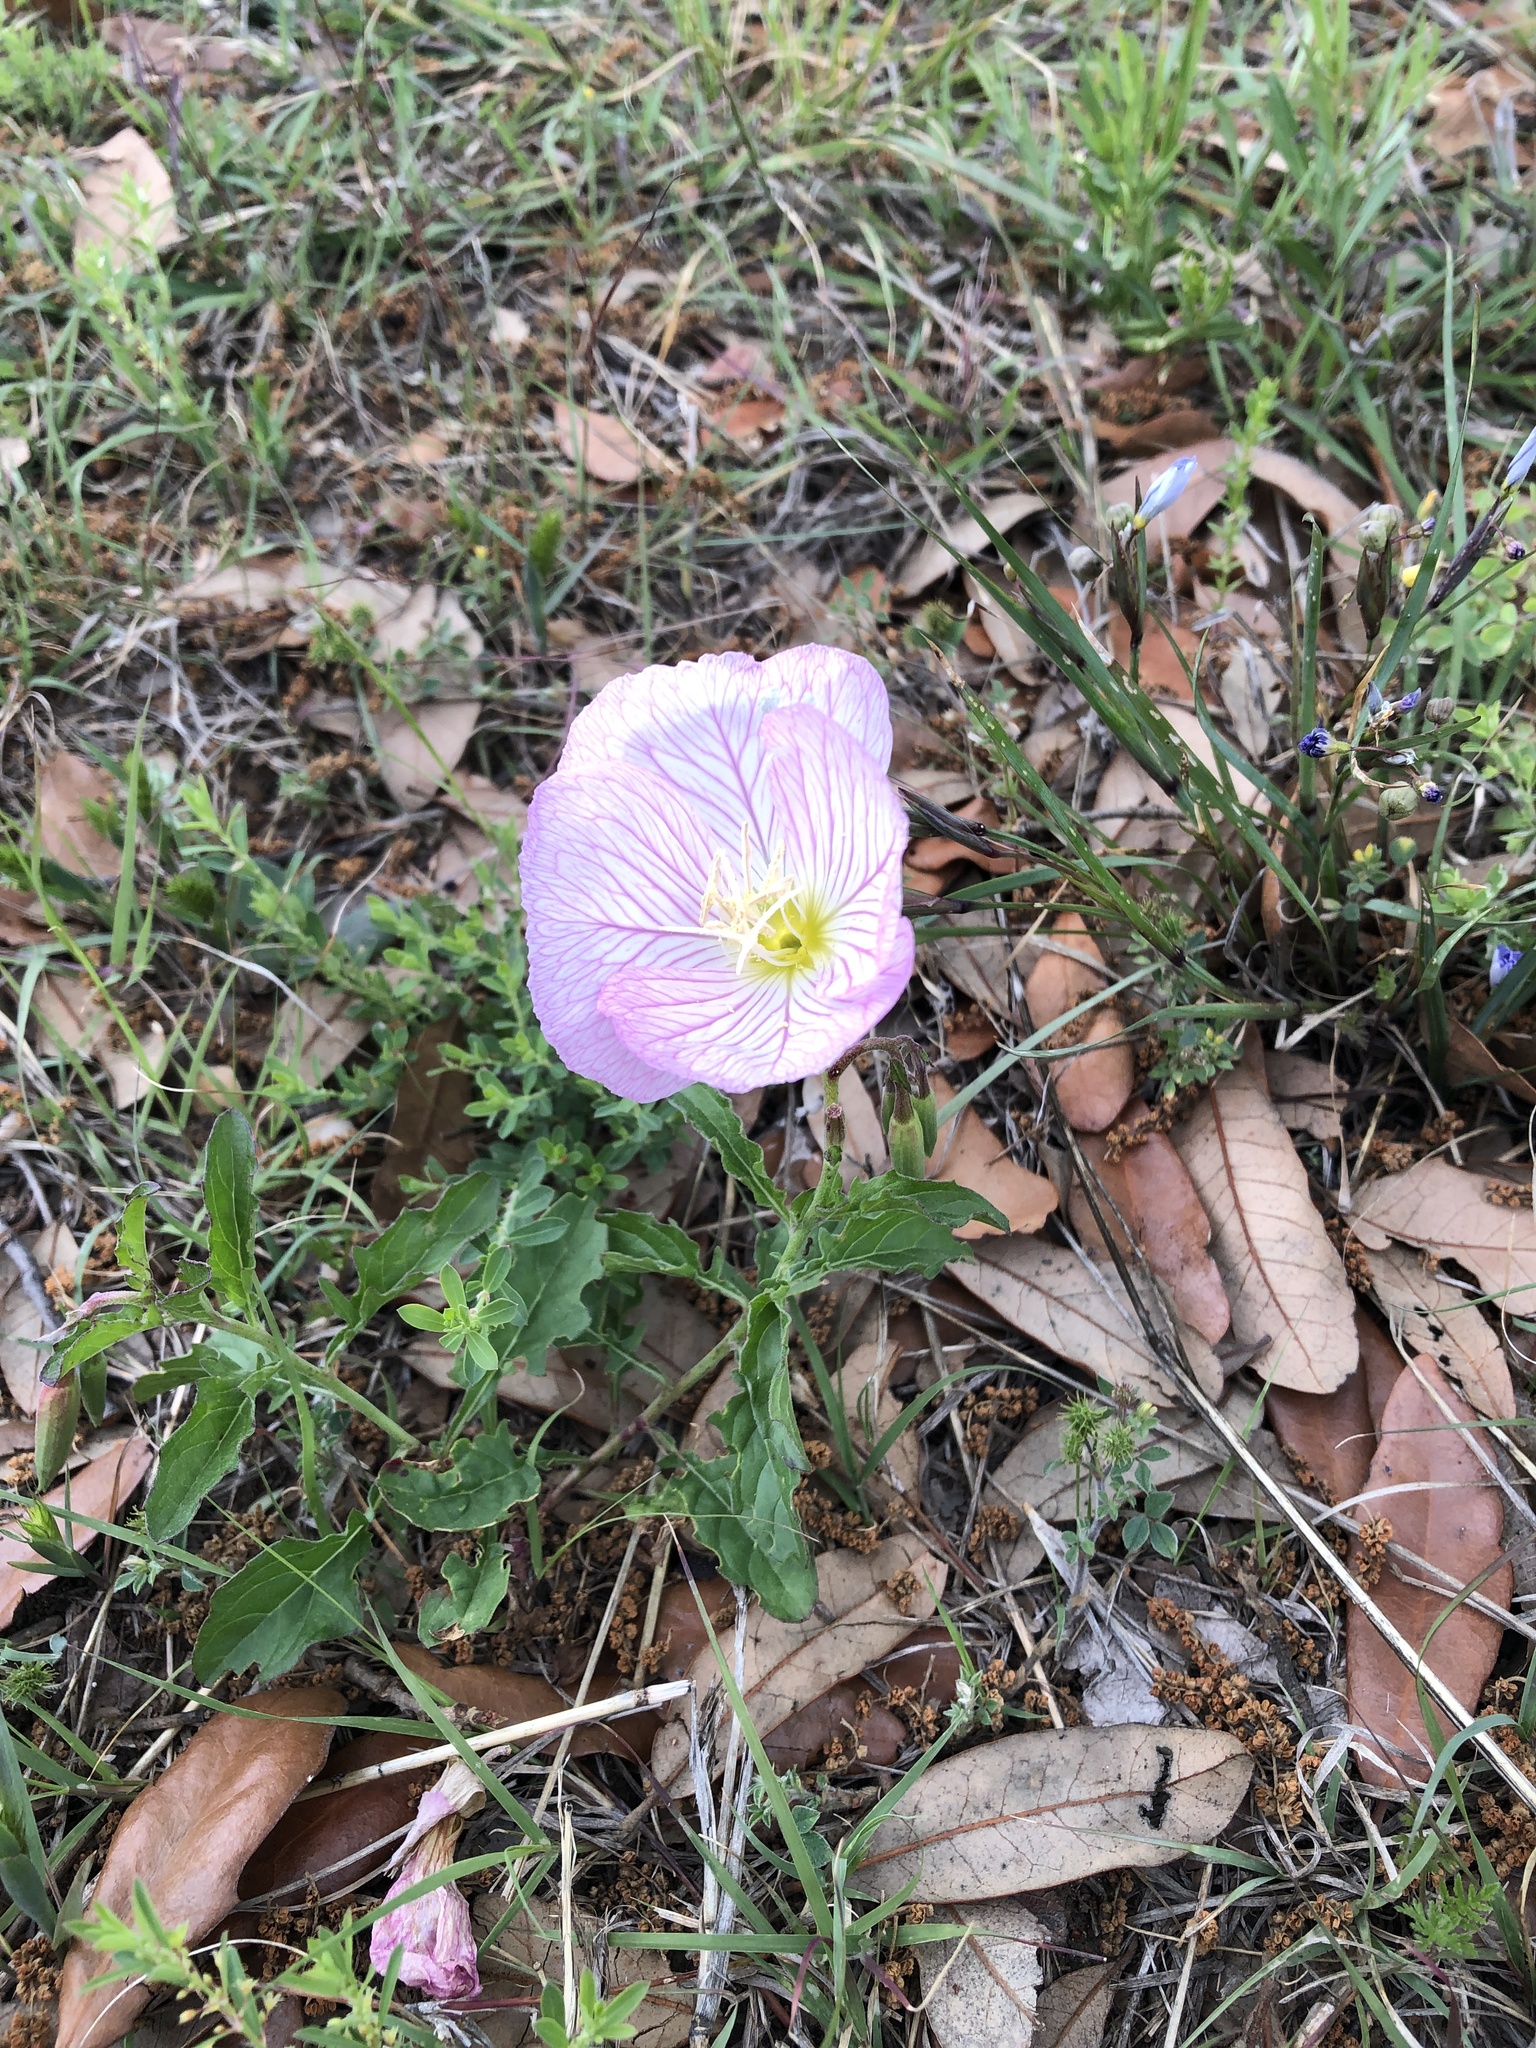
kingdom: Plantae
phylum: Tracheophyta
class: Magnoliopsida
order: Myrtales
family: Onagraceae
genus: Oenothera
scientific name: Oenothera speciosa
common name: White evening-primrose
